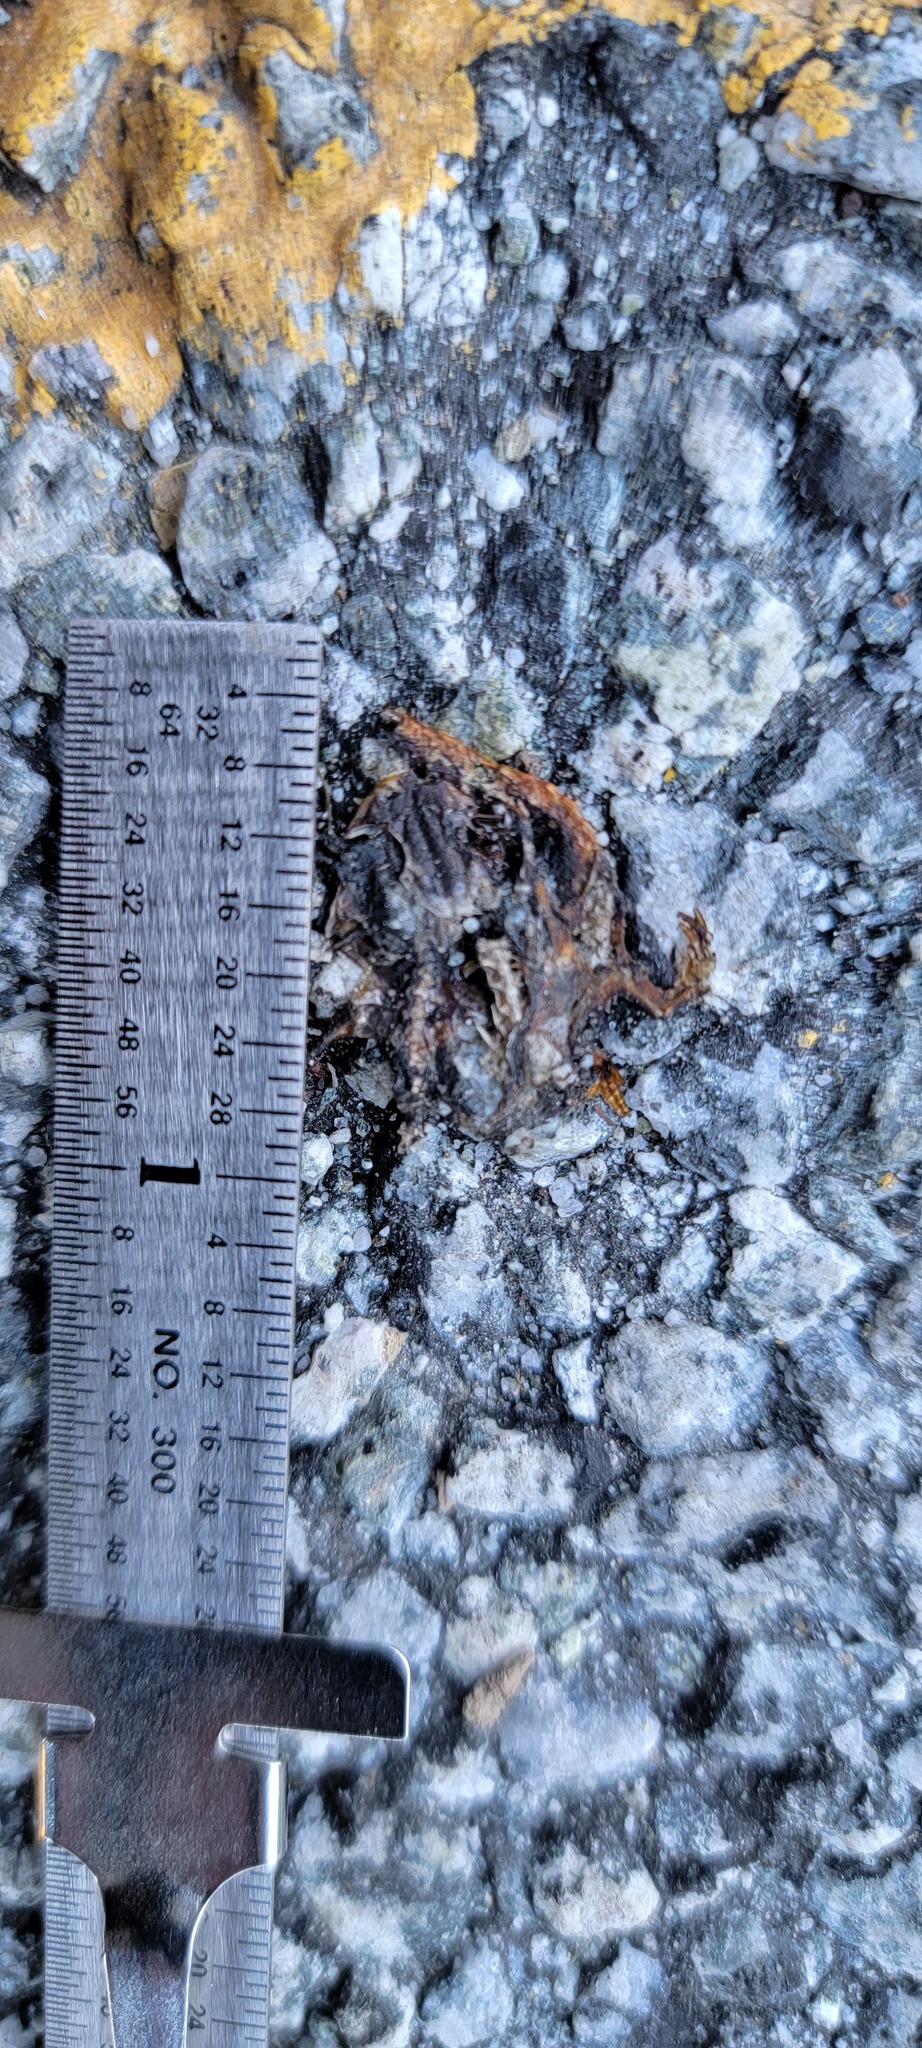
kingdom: Animalia
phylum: Chordata
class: Amphibia
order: Caudata
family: Salamandridae
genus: Taricha
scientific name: Taricha
